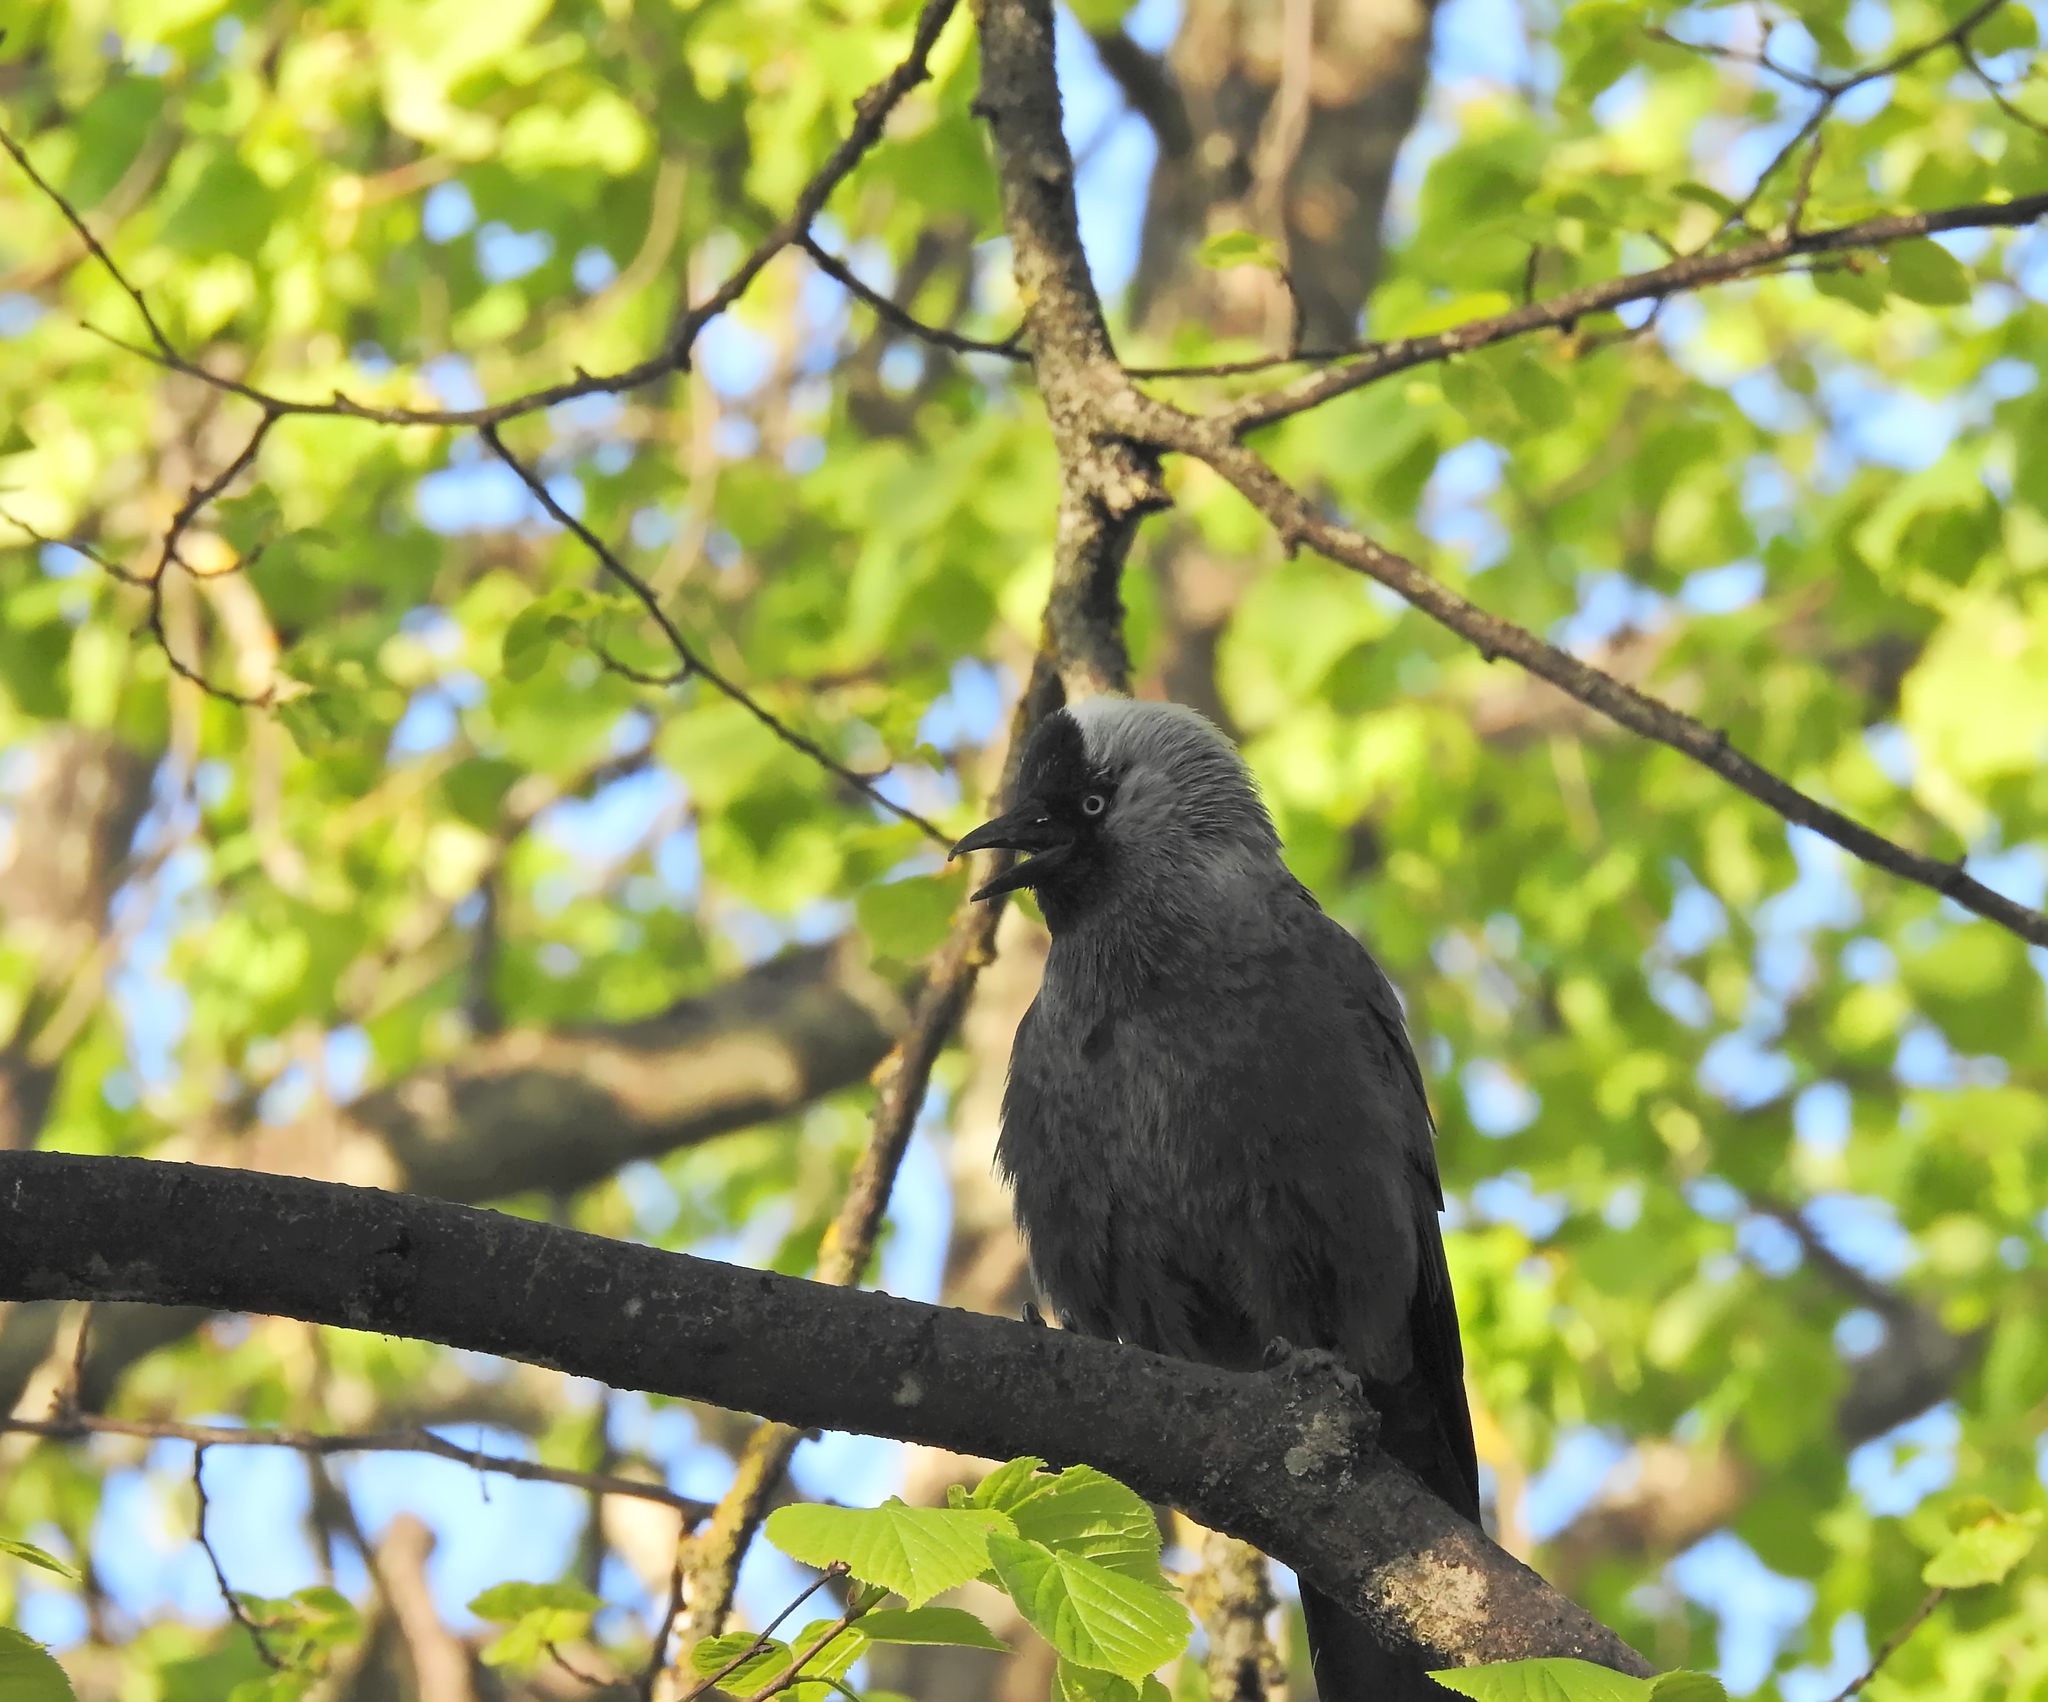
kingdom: Animalia
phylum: Chordata
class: Aves
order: Passeriformes
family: Corvidae
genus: Coloeus
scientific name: Coloeus monedula
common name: Western jackdaw
